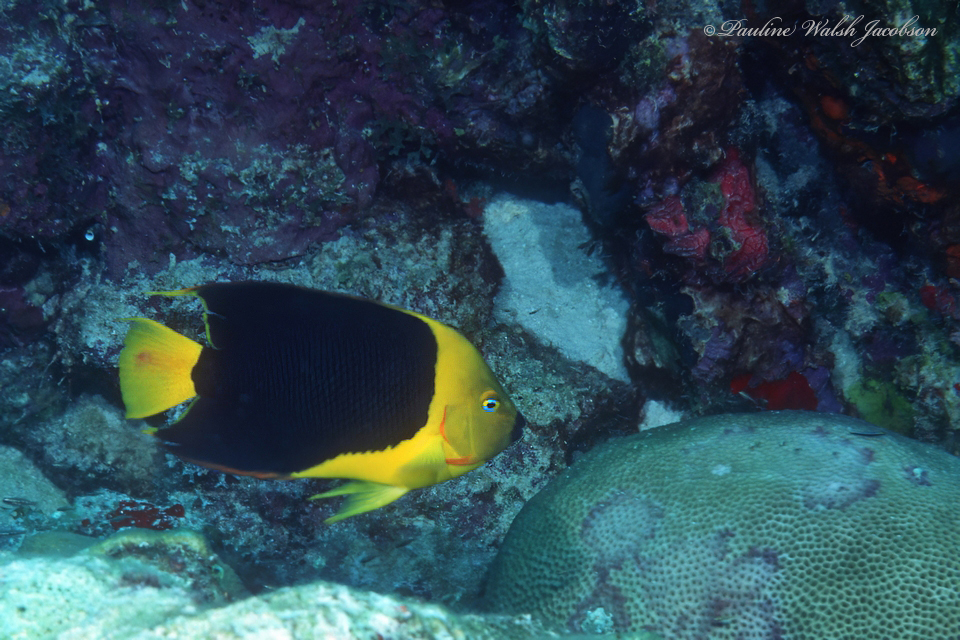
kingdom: Animalia
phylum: Chordata
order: Perciformes
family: Pomacanthidae
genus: Holacanthus
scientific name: Holacanthus tricolor
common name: Rock beauty
